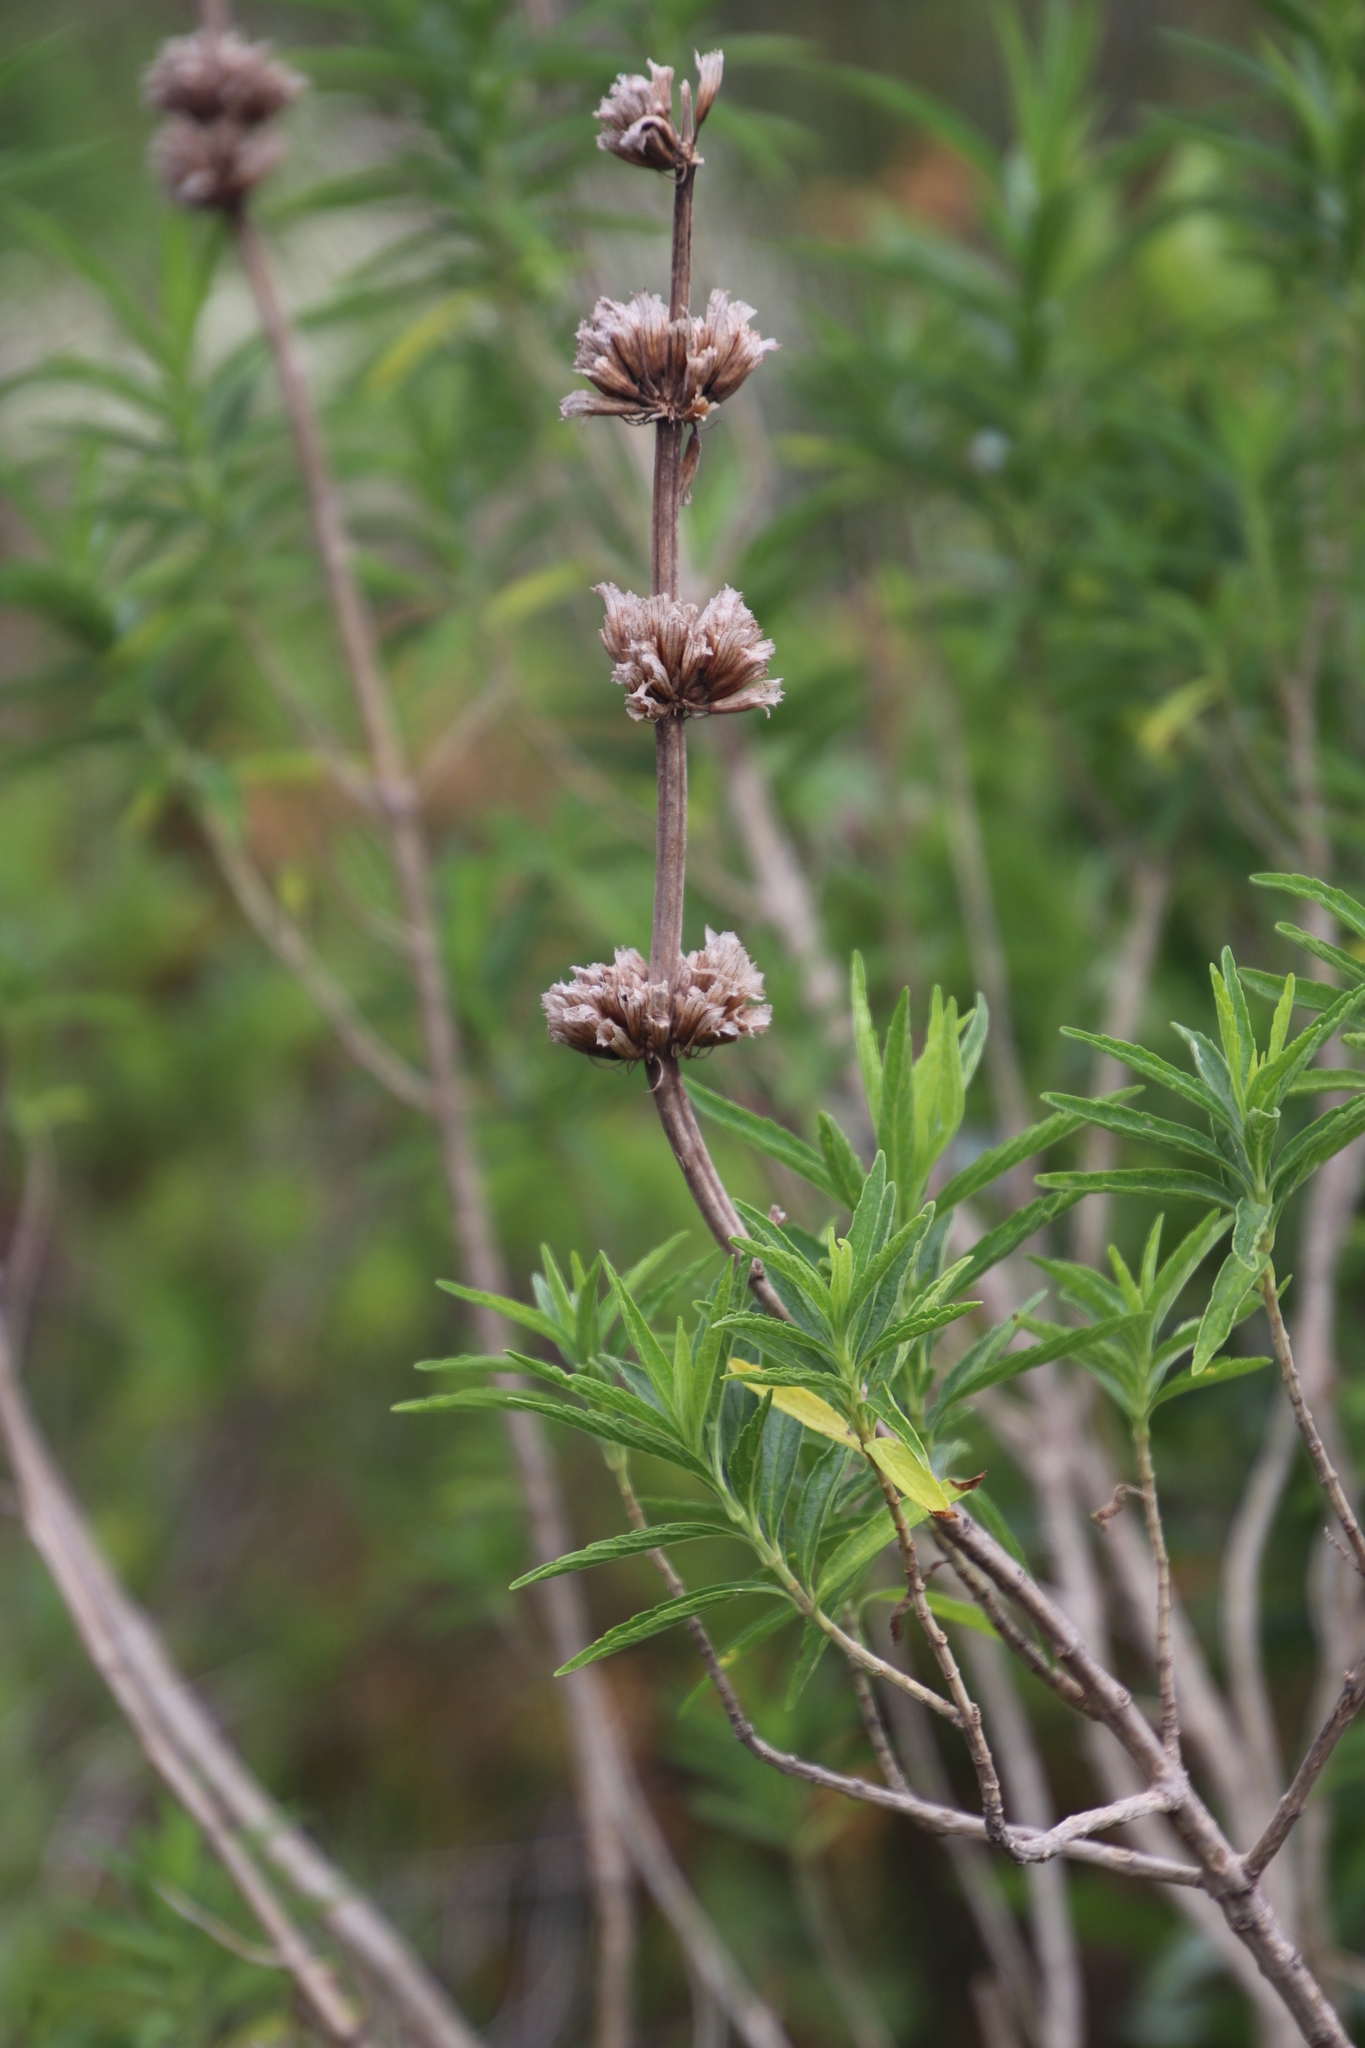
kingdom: Plantae
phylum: Tracheophyta
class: Magnoliopsida
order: Lamiales
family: Lamiaceae
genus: Leonotis
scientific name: Leonotis leonurus
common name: Lion's ear
